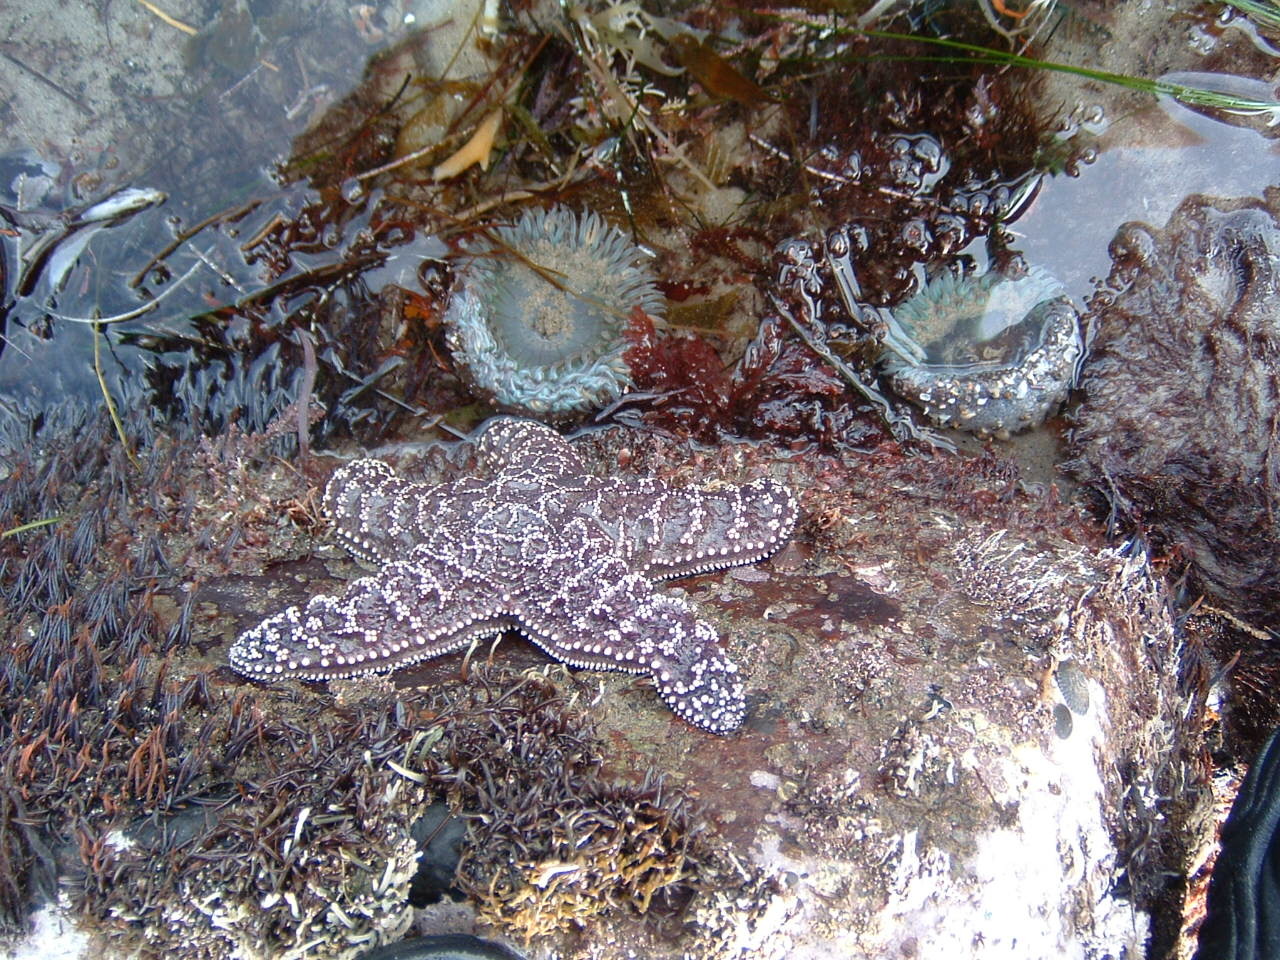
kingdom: Animalia
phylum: Echinodermata
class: Asteroidea
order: Forcipulatida
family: Asteriidae
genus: Pisaster
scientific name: Pisaster ochraceus
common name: Ochre stars
